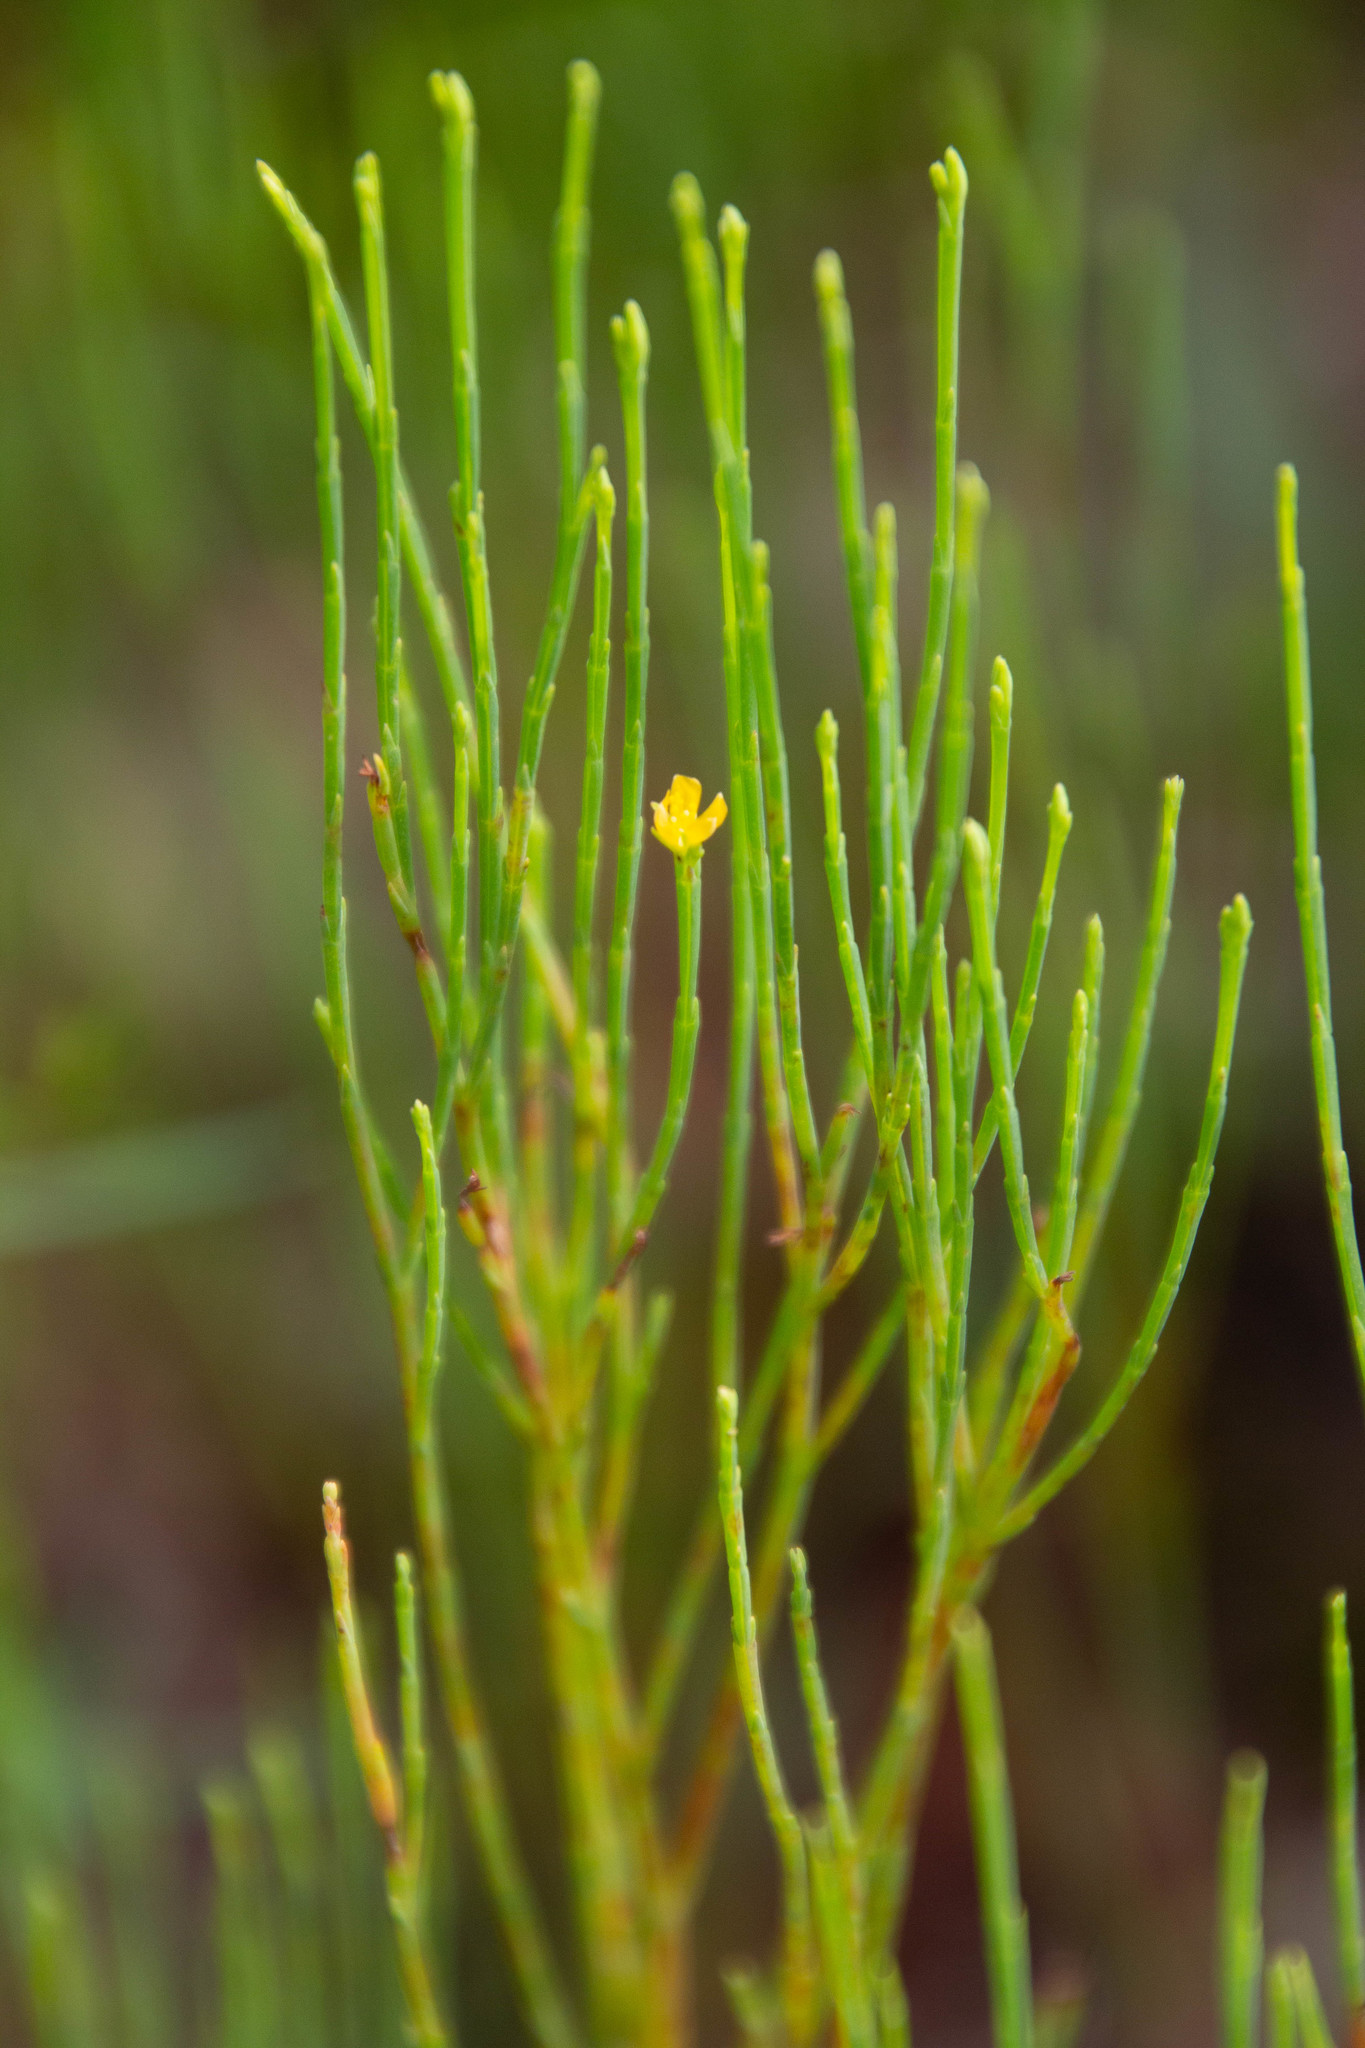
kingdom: Plantae
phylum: Tracheophyta
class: Magnoliopsida
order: Malpighiales
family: Hypericaceae
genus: Hypericum
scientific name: Hypericum gentianoides
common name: Gentian-leaved st. john's-wort
